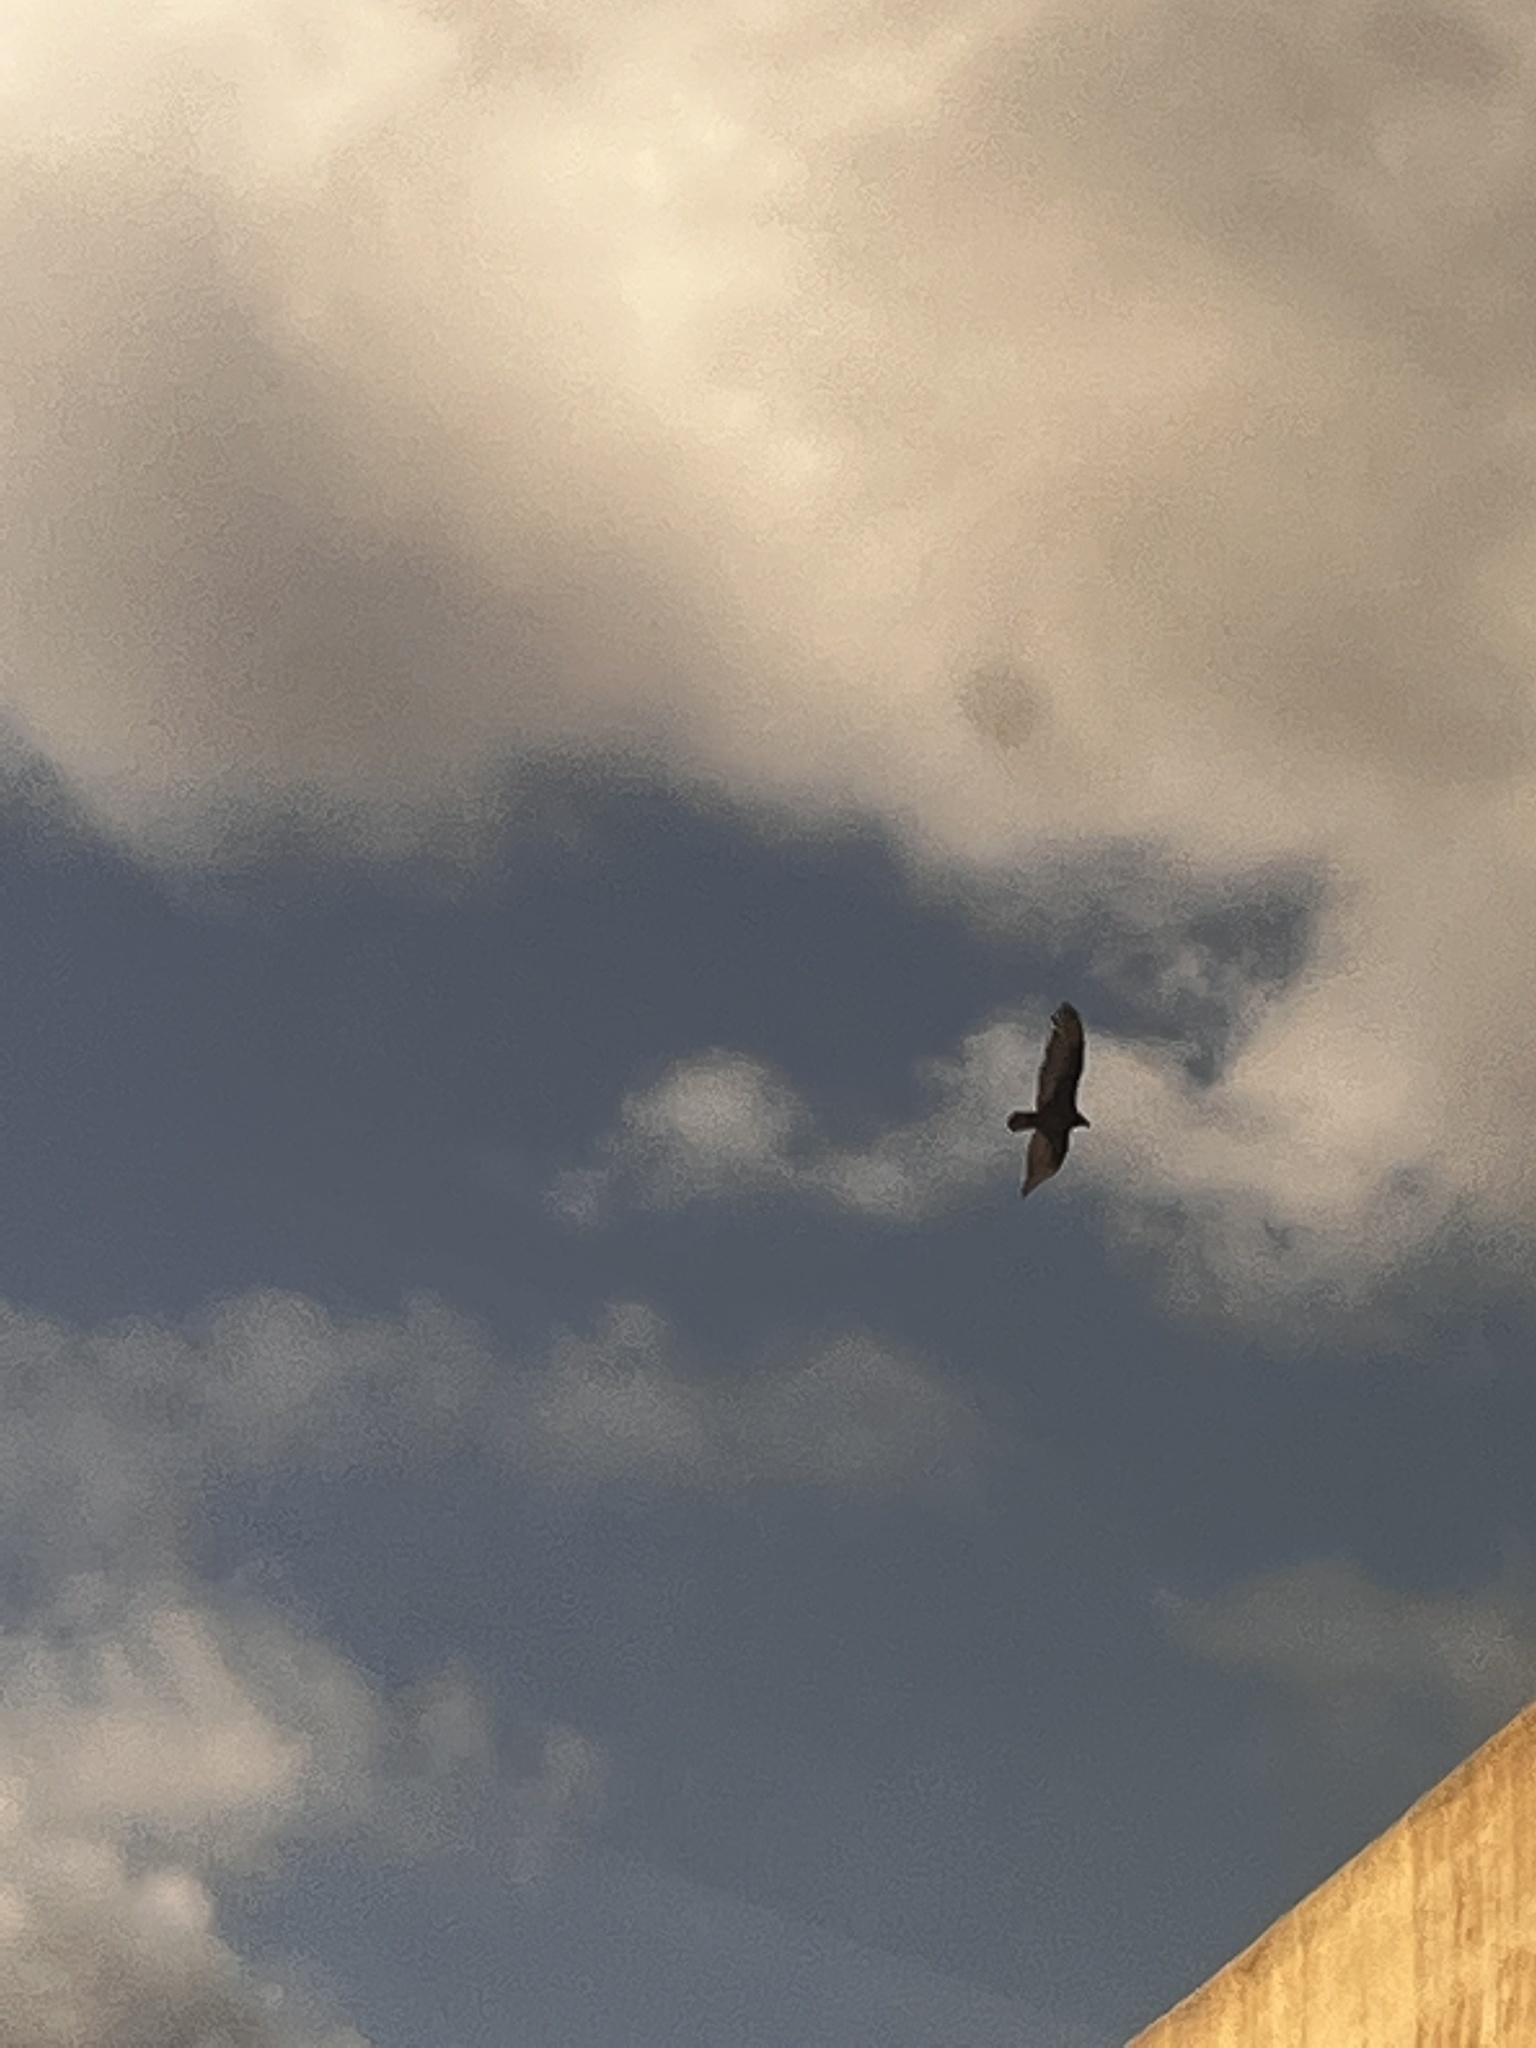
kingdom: Animalia
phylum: Chordata
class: Aves
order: Accipitriformes
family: Cathartidae
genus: Cathartes
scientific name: Cathartes aura
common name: Turkey vulture
